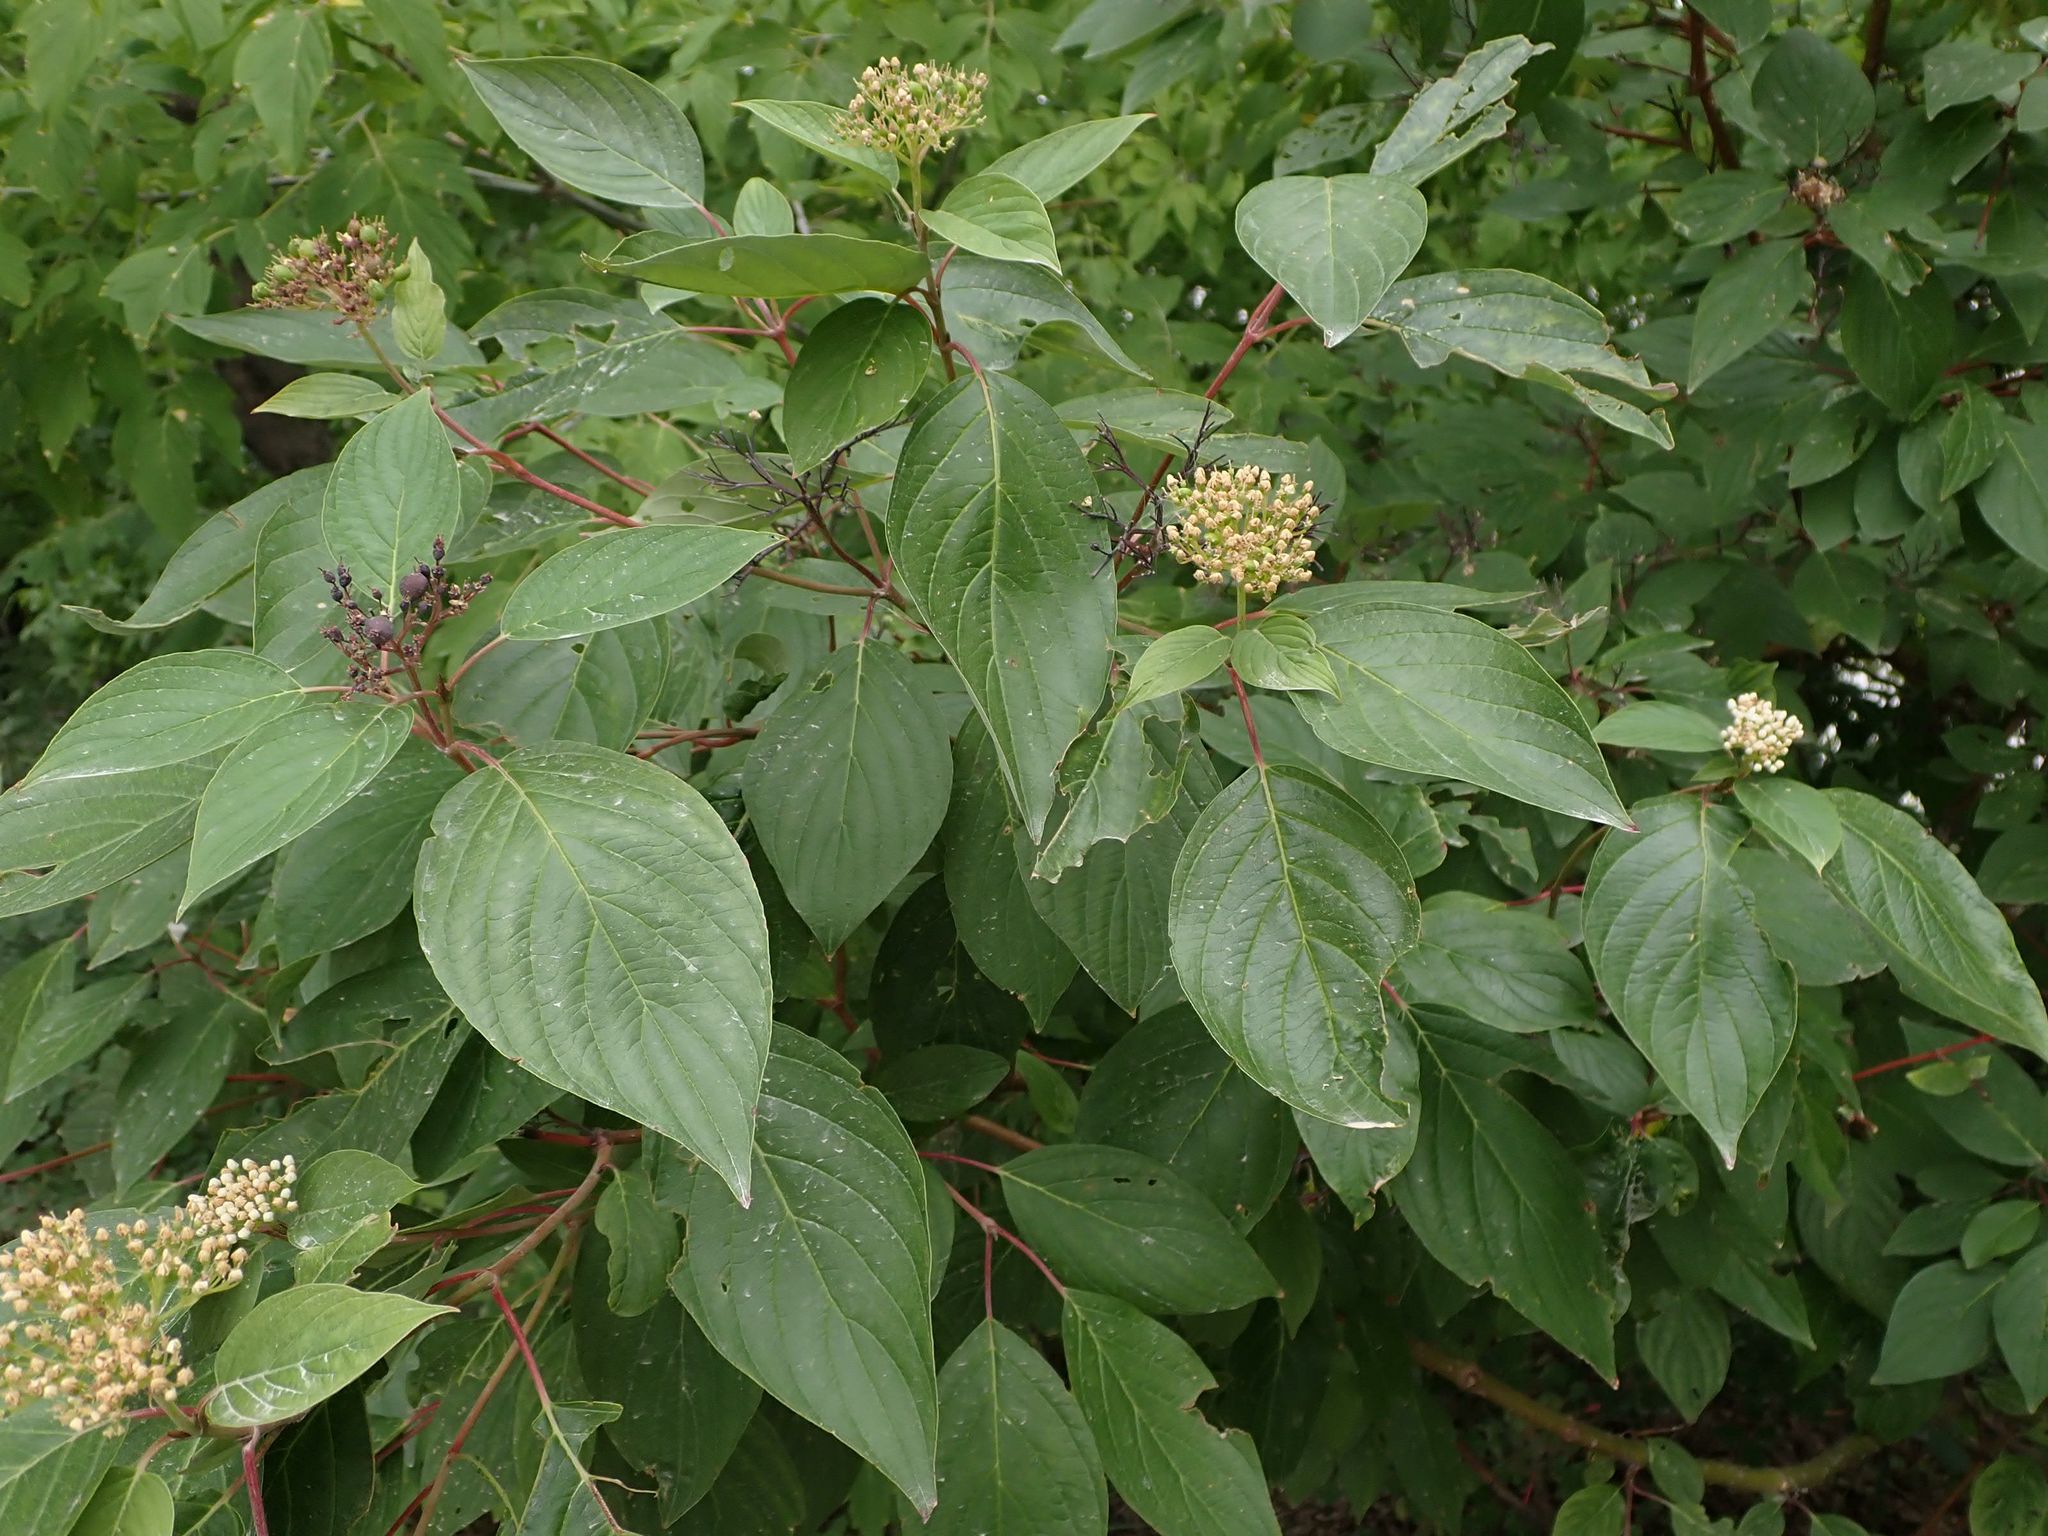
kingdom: Plantae
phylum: Tracheophyta
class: Magnoliopsida
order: Cornales
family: Cornaceae
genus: Cornus
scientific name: Cornus sericea
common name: Red-osier dogwood
